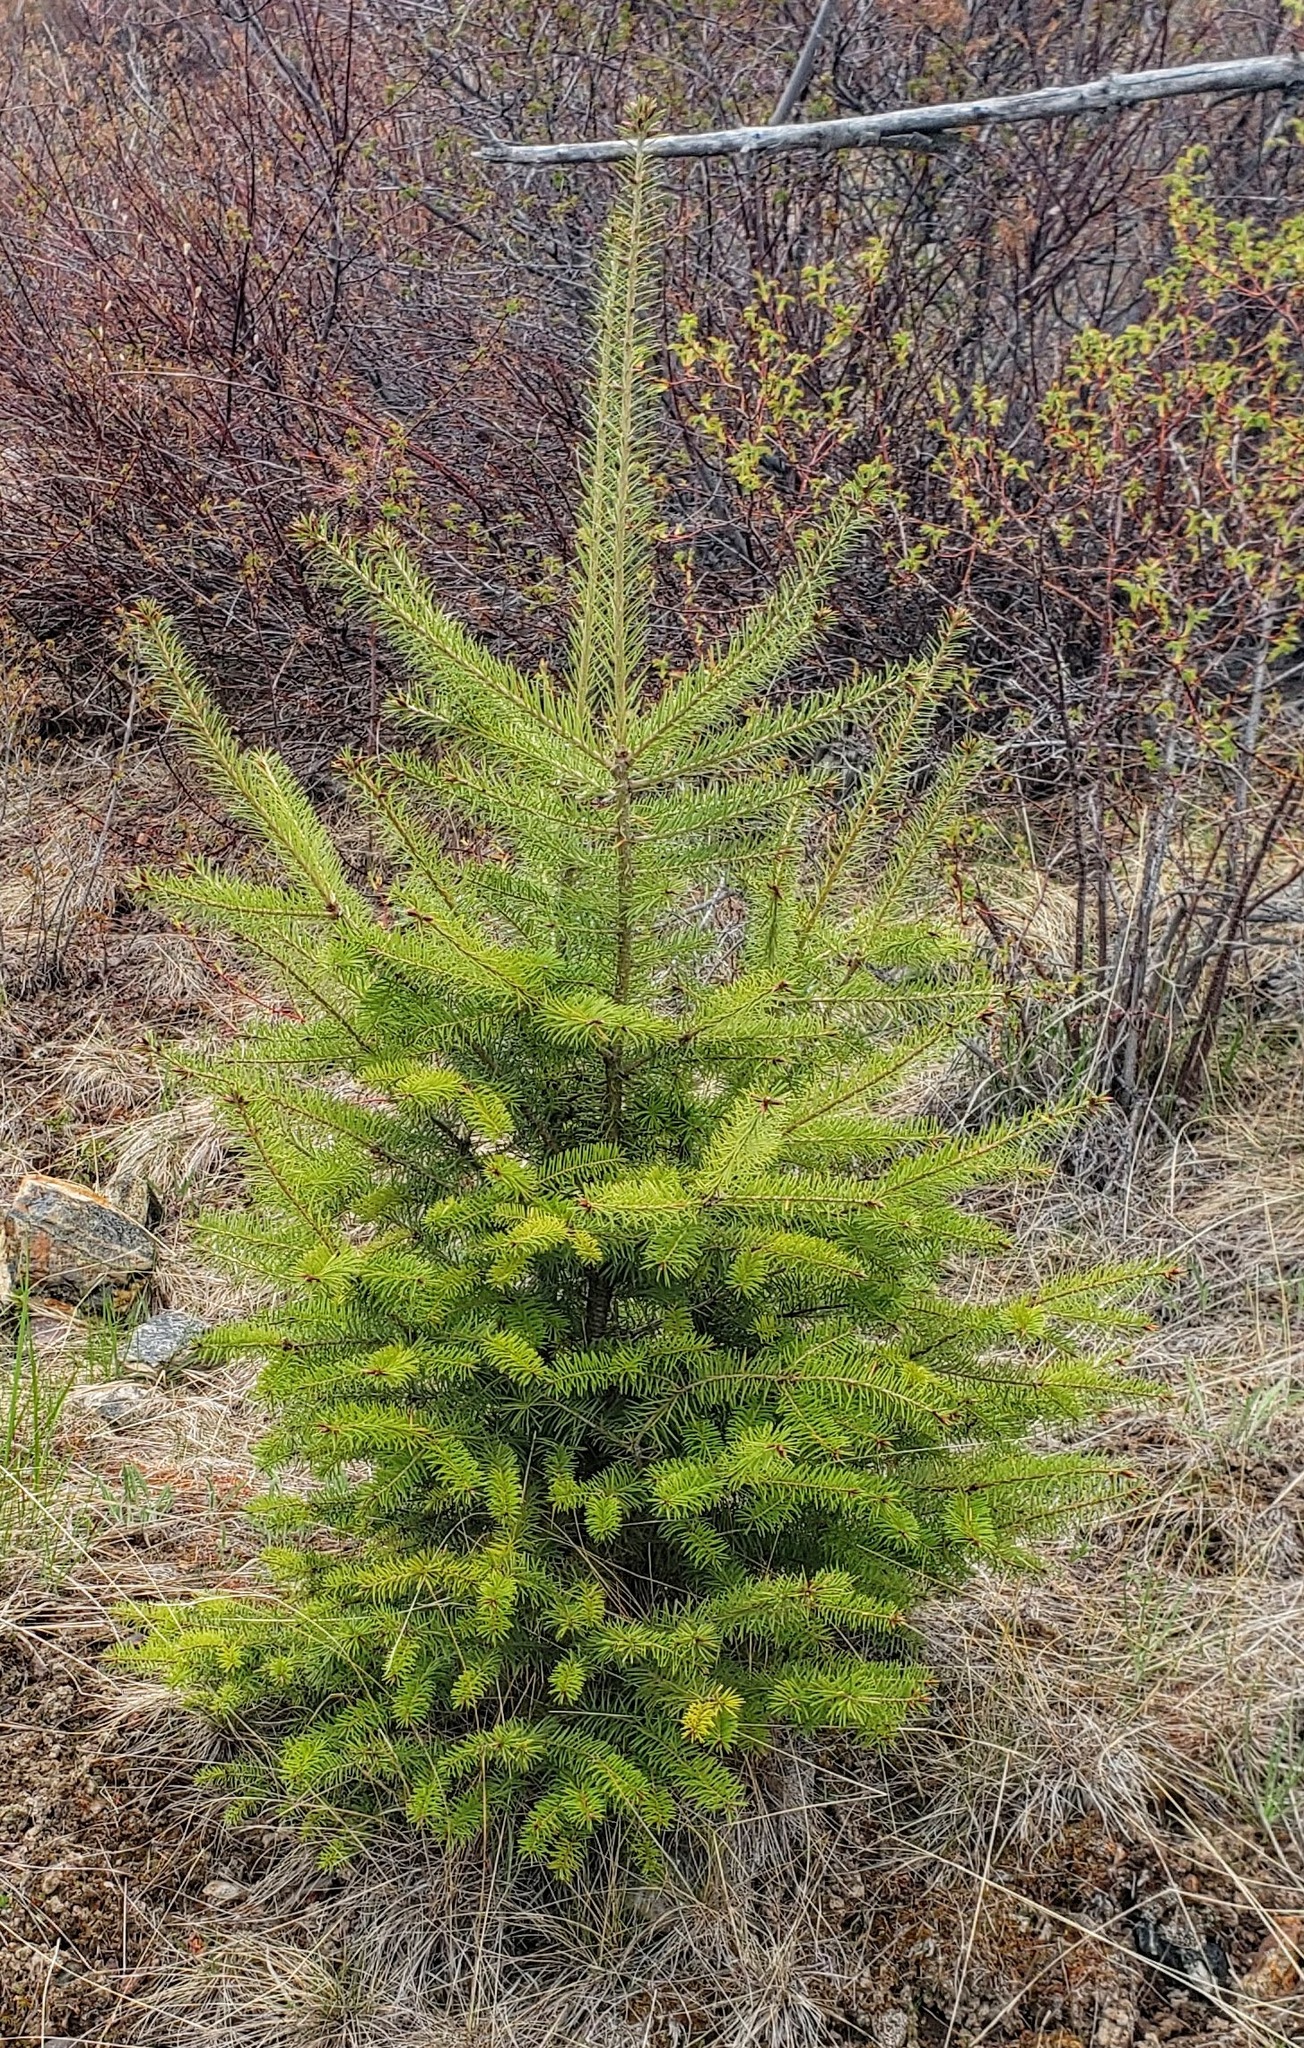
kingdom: Plantae
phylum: Tracheophyta
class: Pinopsida
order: Pinales
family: Pinaceae
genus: Pseudotsuga
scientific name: Pseudotsuga menziesii
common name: Douglas fir
